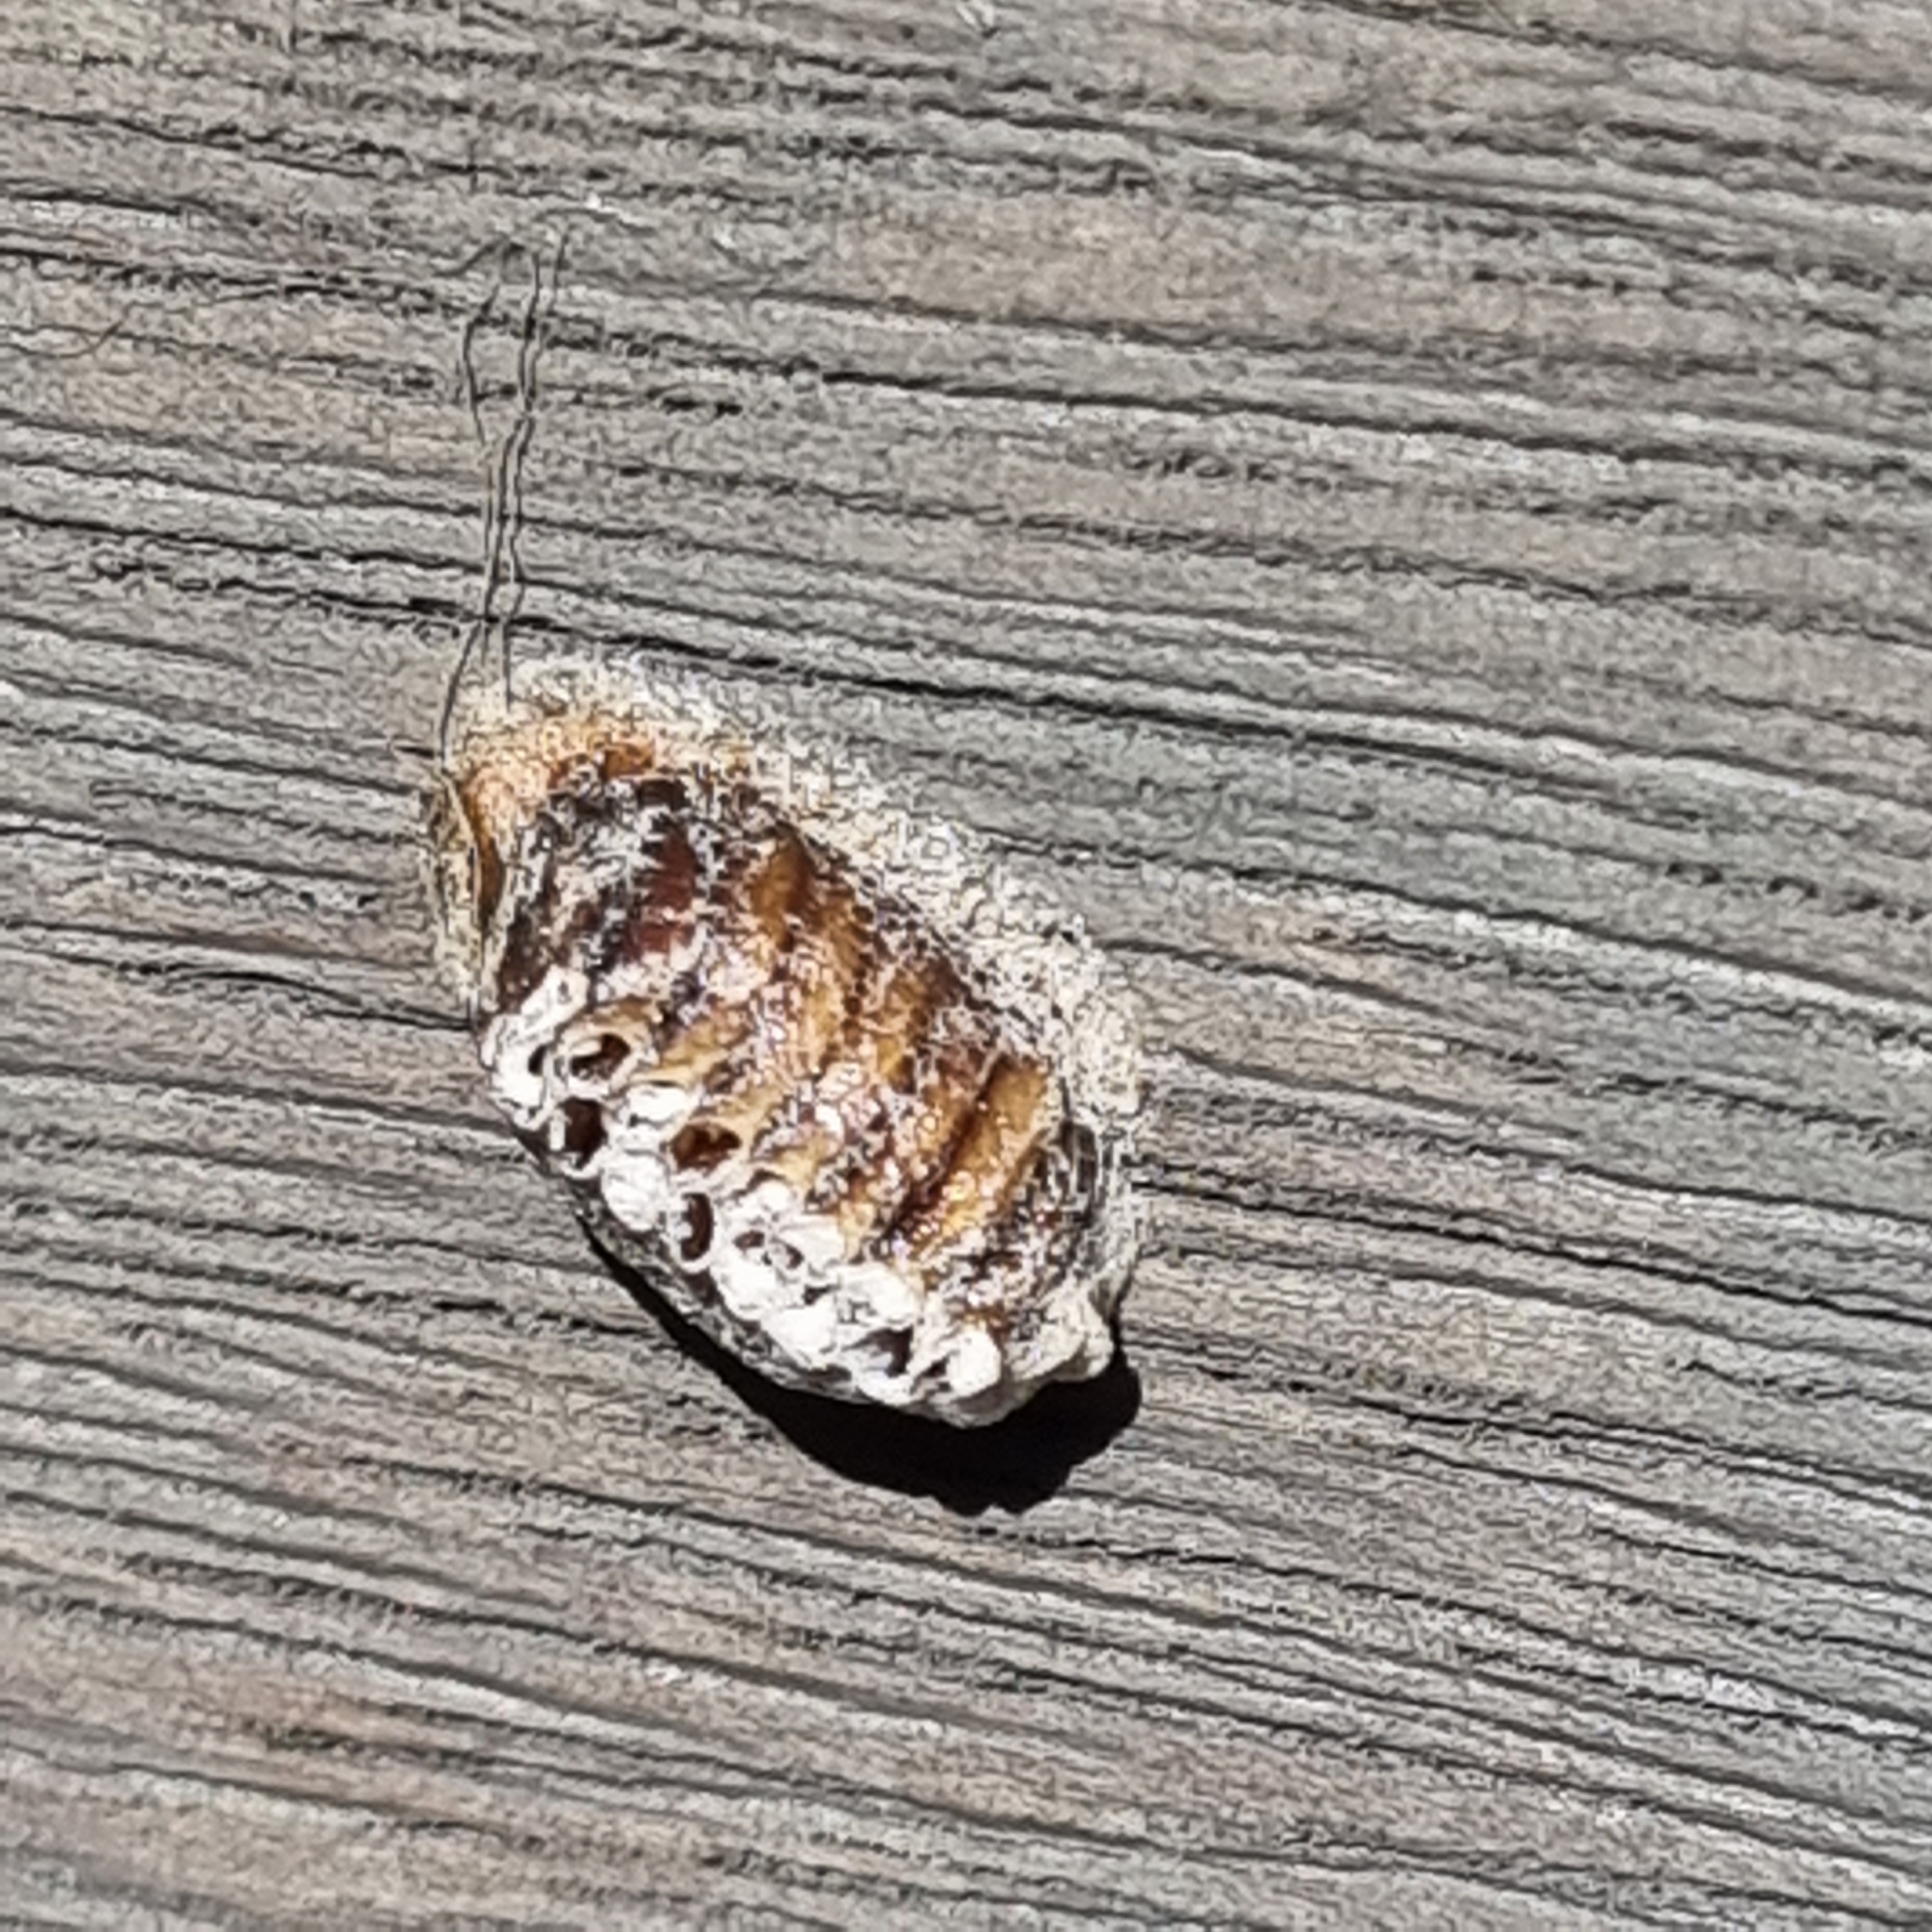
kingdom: Animalia
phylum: Arthropoda
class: Insecta
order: Mantodea
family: Mantidae
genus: Orthodera
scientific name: Orthodera novaezealandiae
